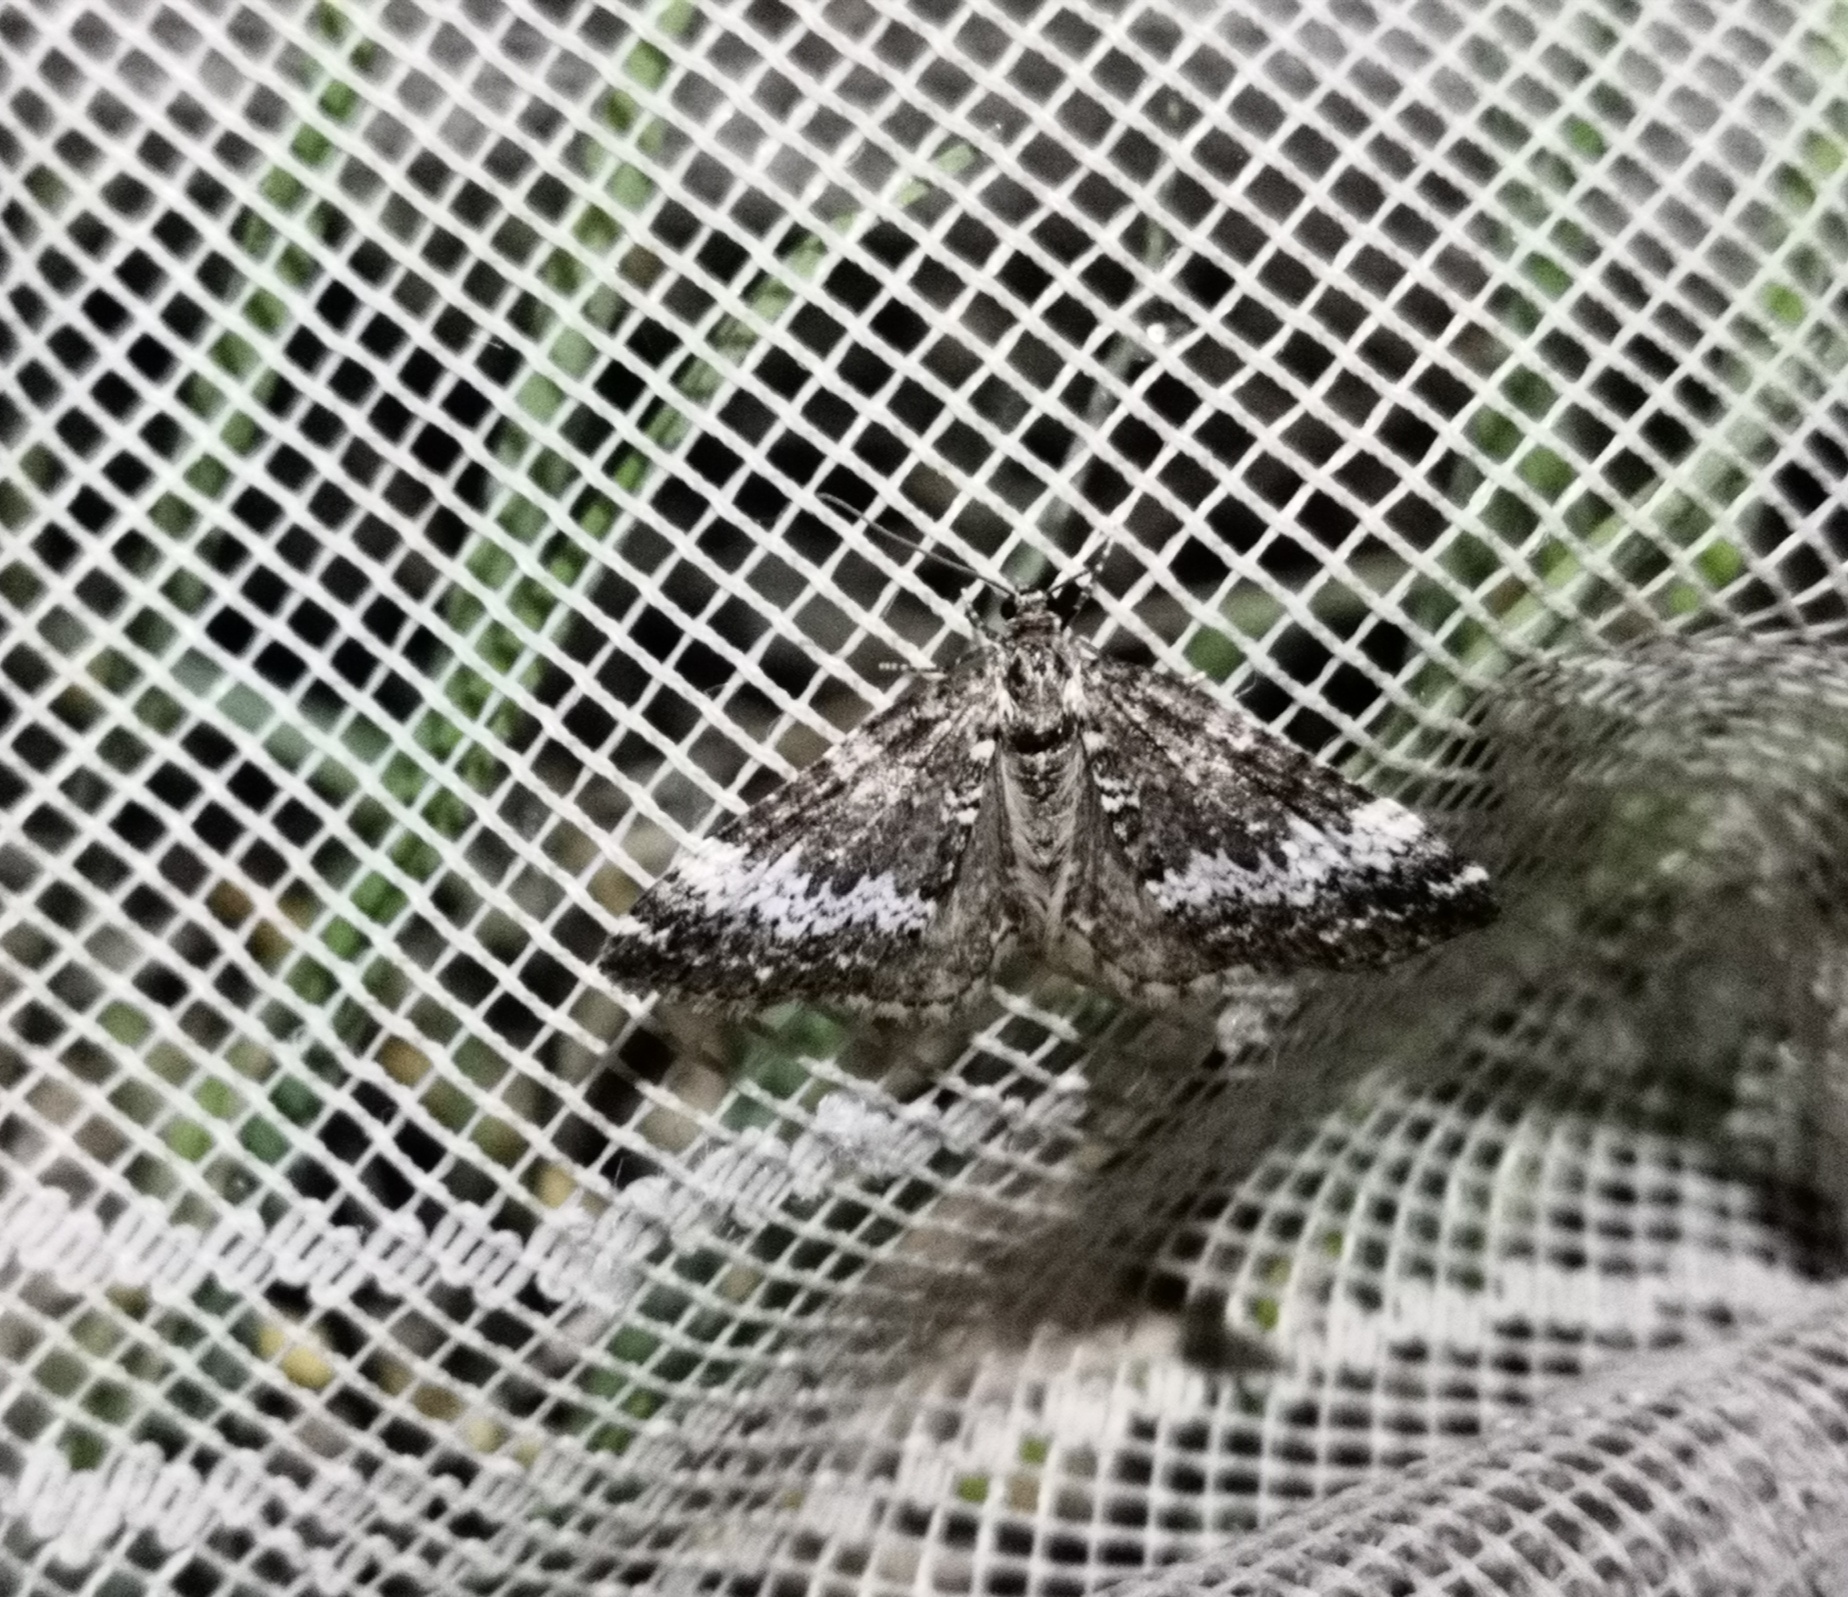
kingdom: Animalia
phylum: Arthropoda
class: Insecta
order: Lepidoptera
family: Geometridae
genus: Perizoma
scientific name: Perizoma alchemillata
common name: Small rivulet
